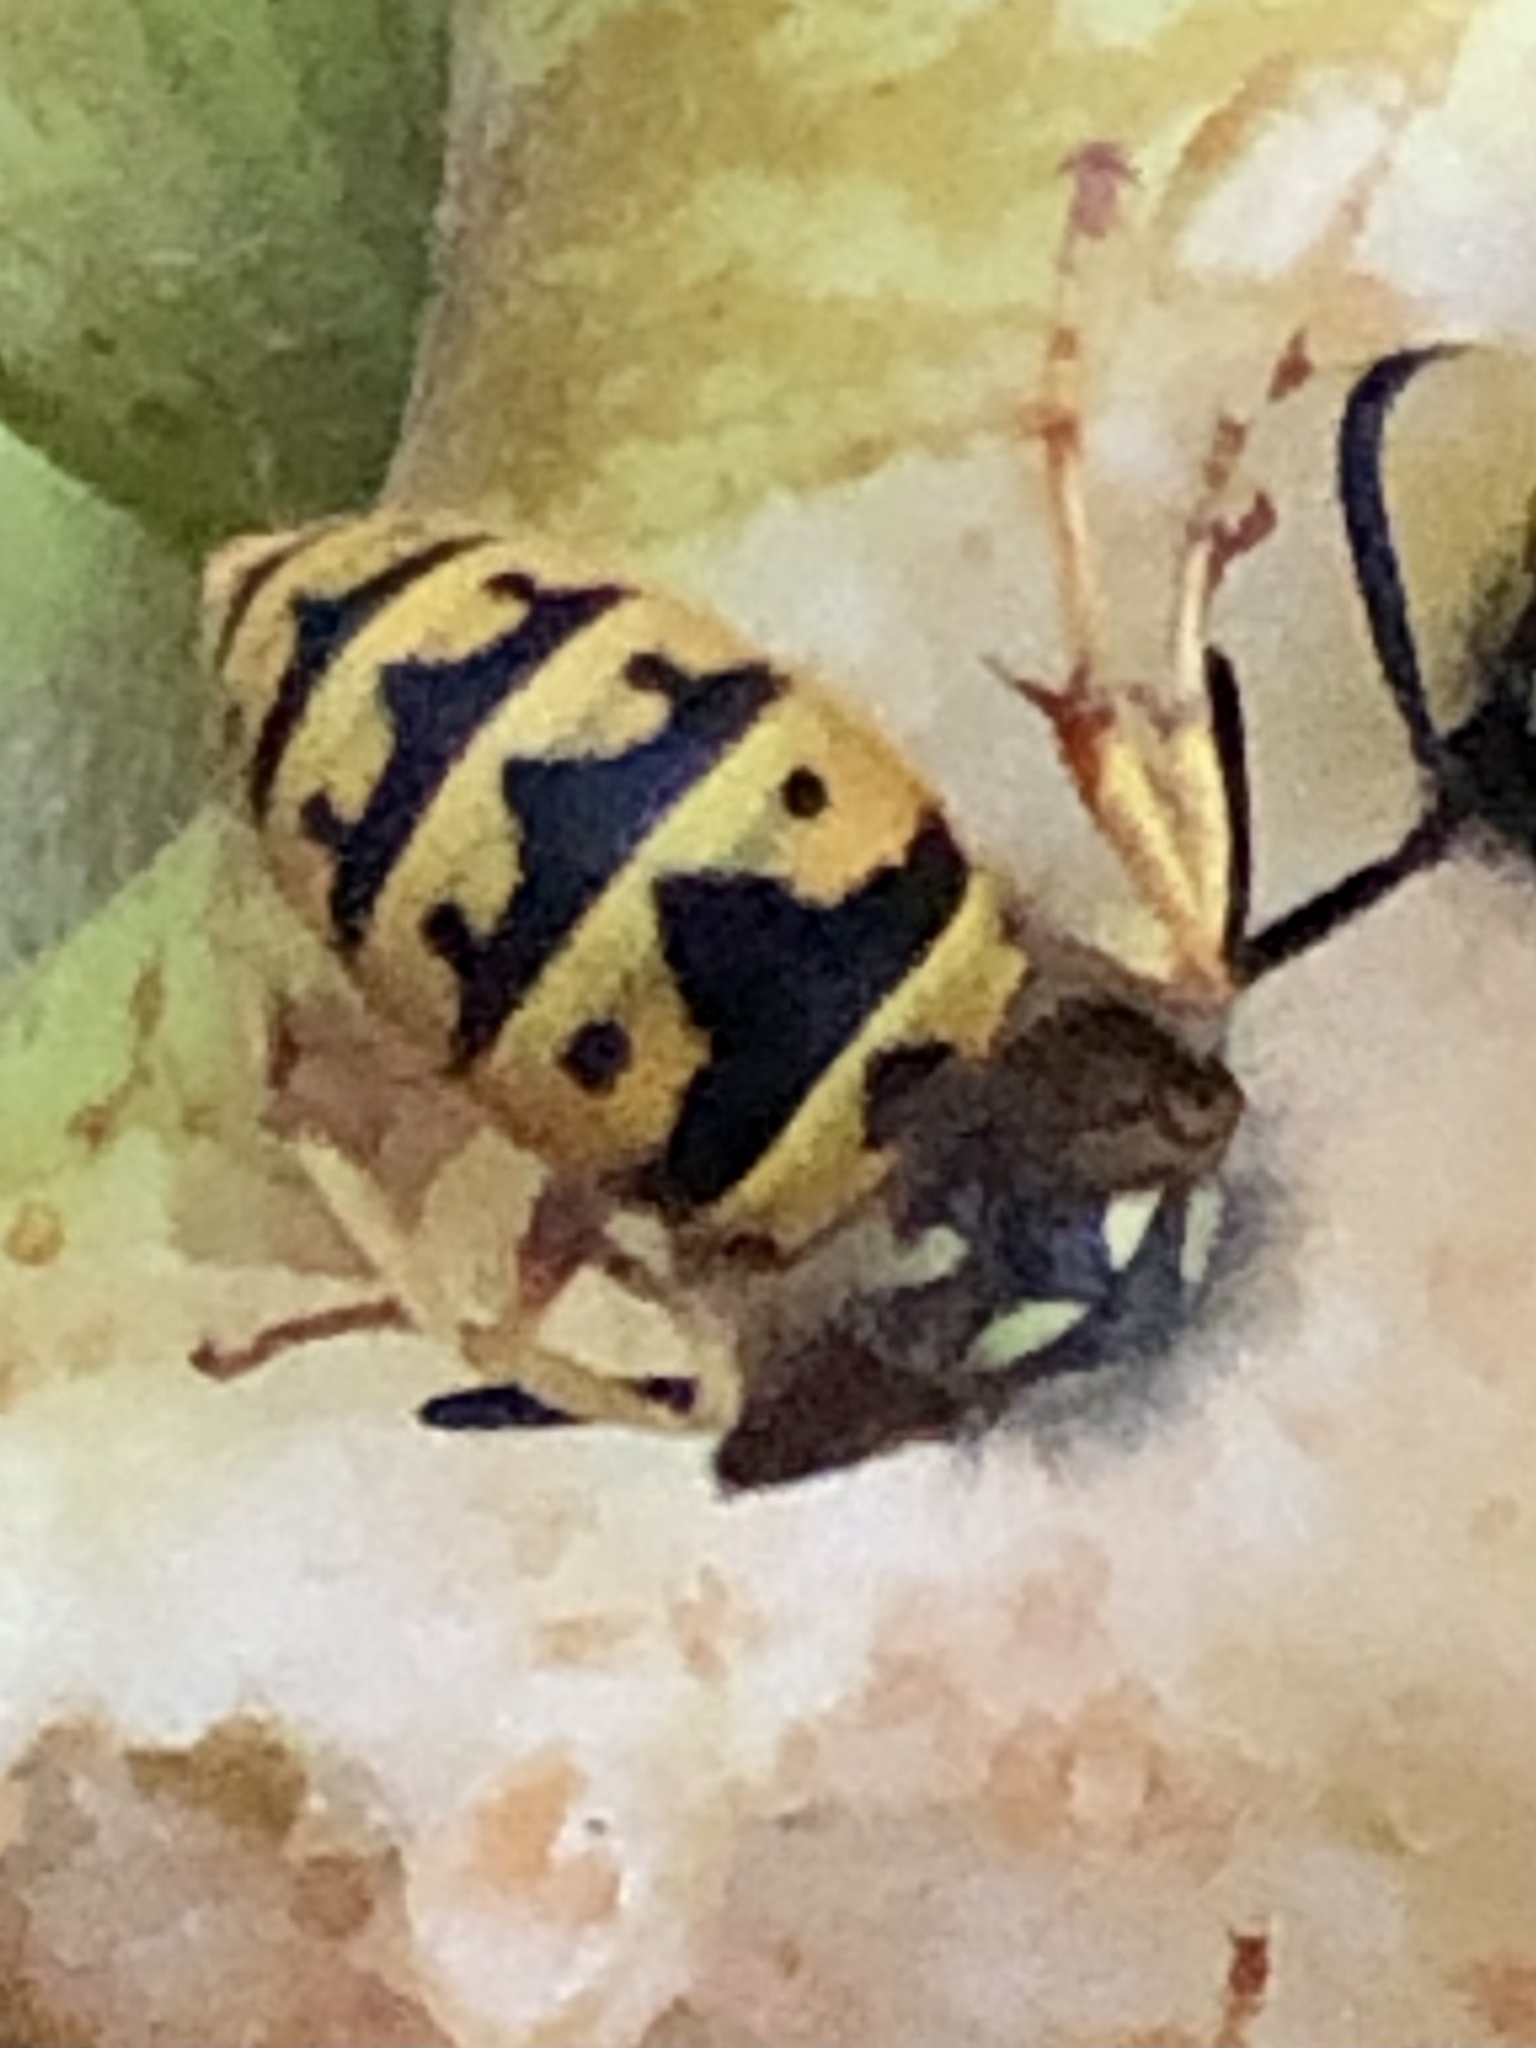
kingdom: Animalia
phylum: Arthropoda
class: Insecta
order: Hymenoptera
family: Vespidae
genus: Vespula
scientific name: Vespula germanica
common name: German wasp
